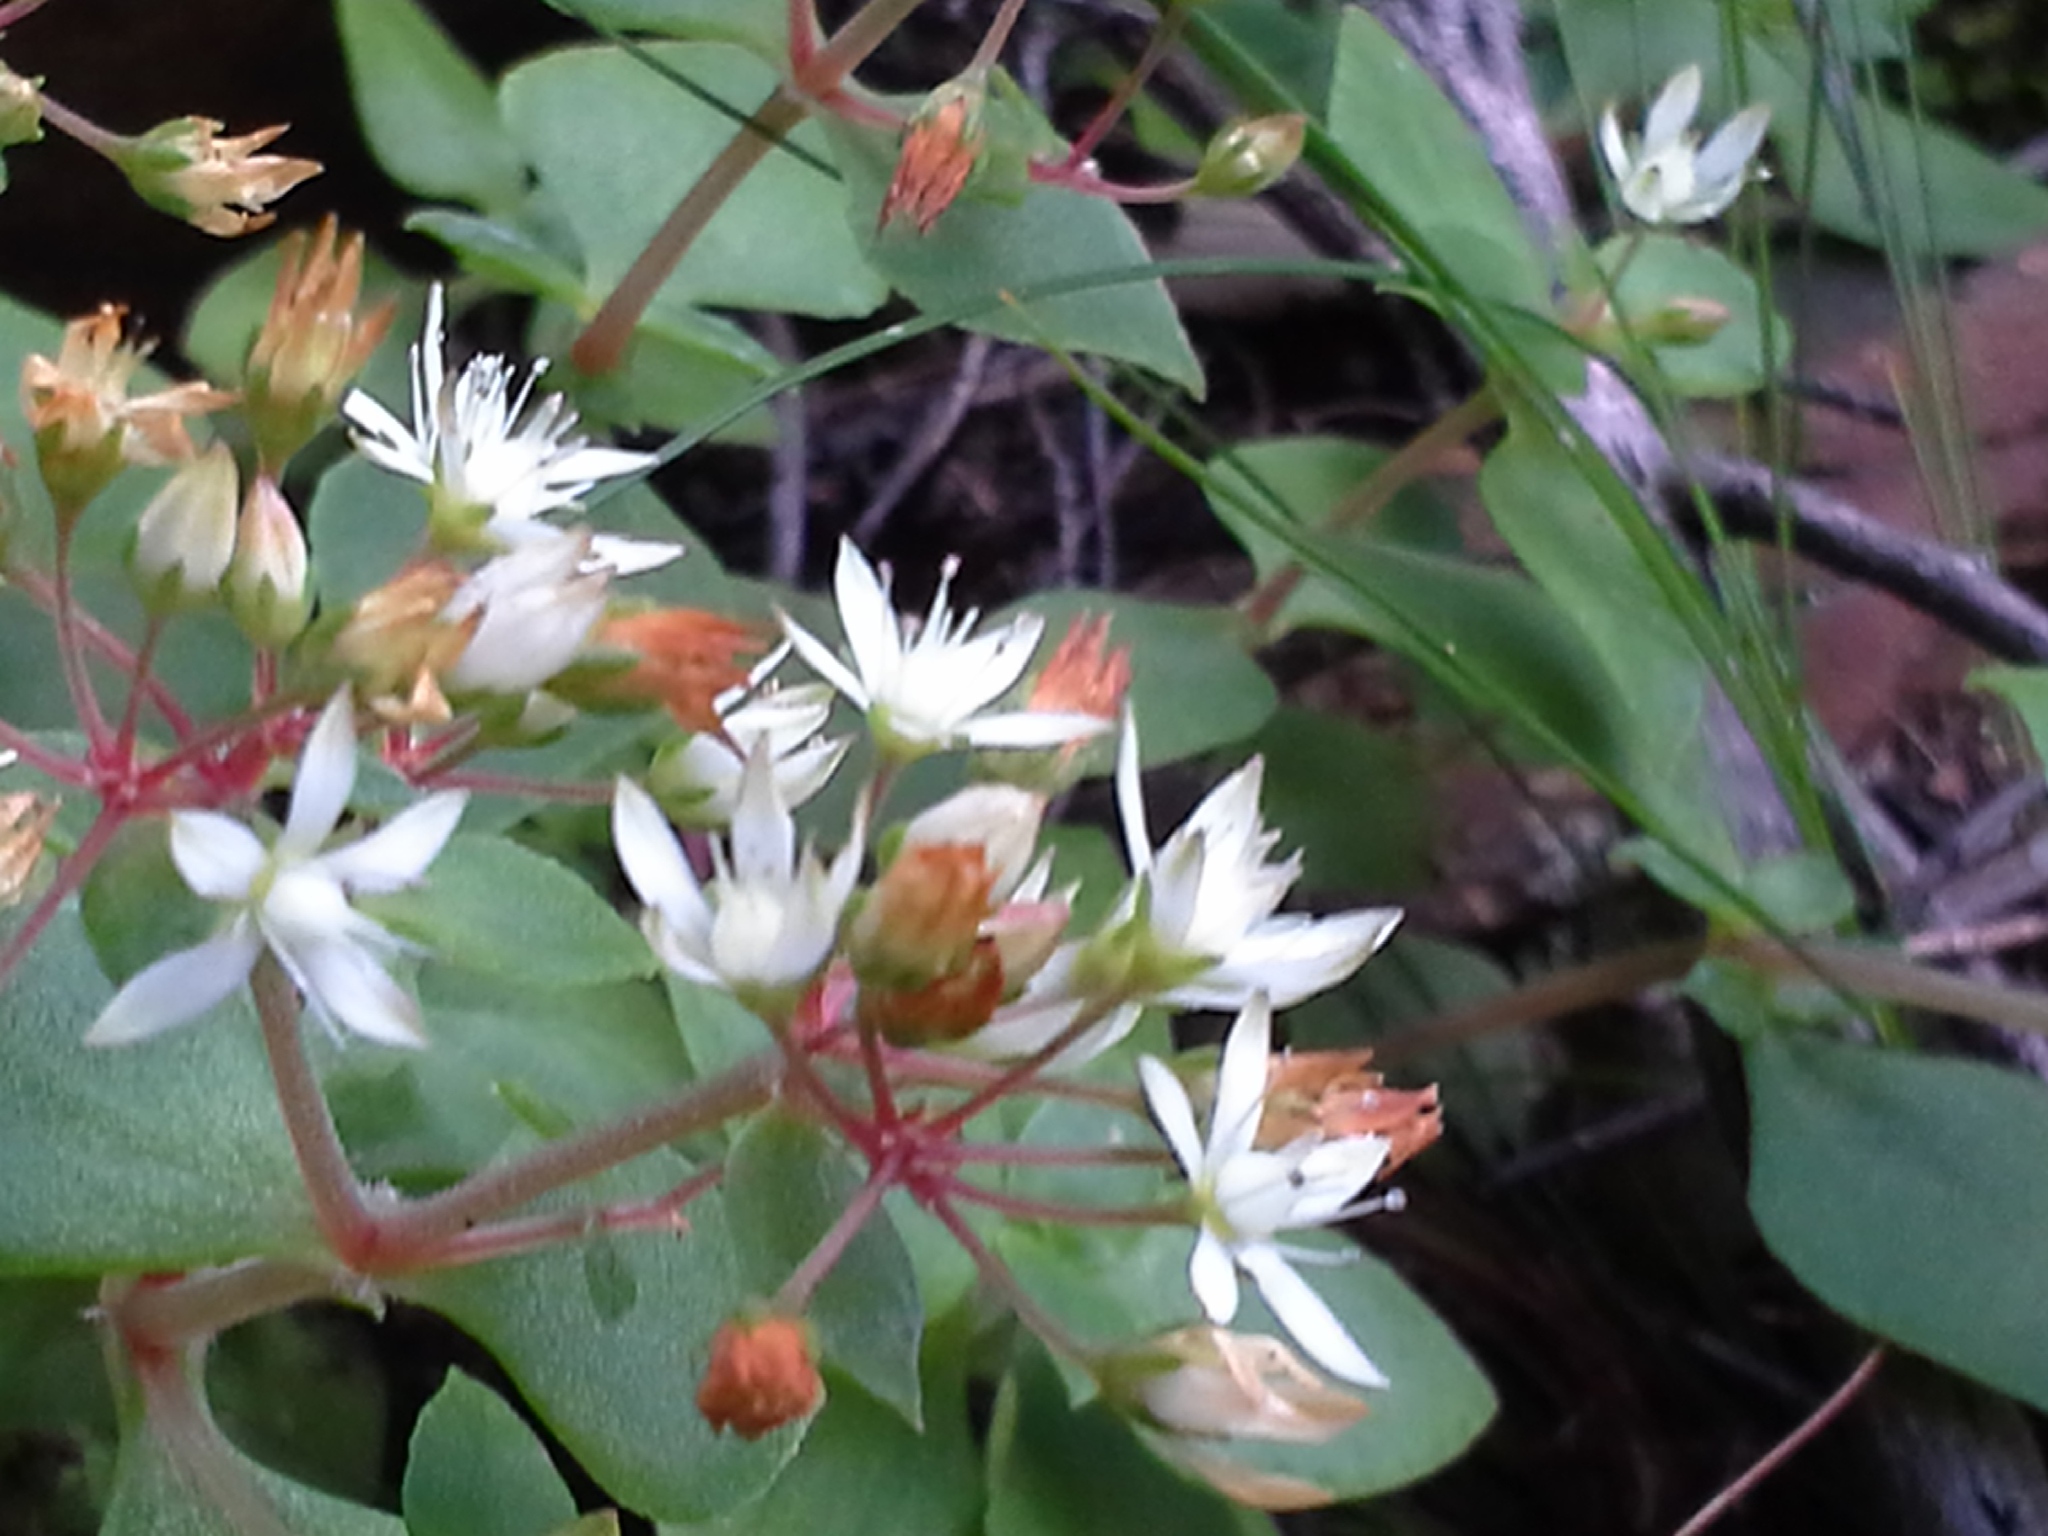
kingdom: Plantae
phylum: Tracheophyta
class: Magnoliopsida
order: Saxifragales
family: Crassulaceae
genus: Crassula
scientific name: Crassula pellucida
